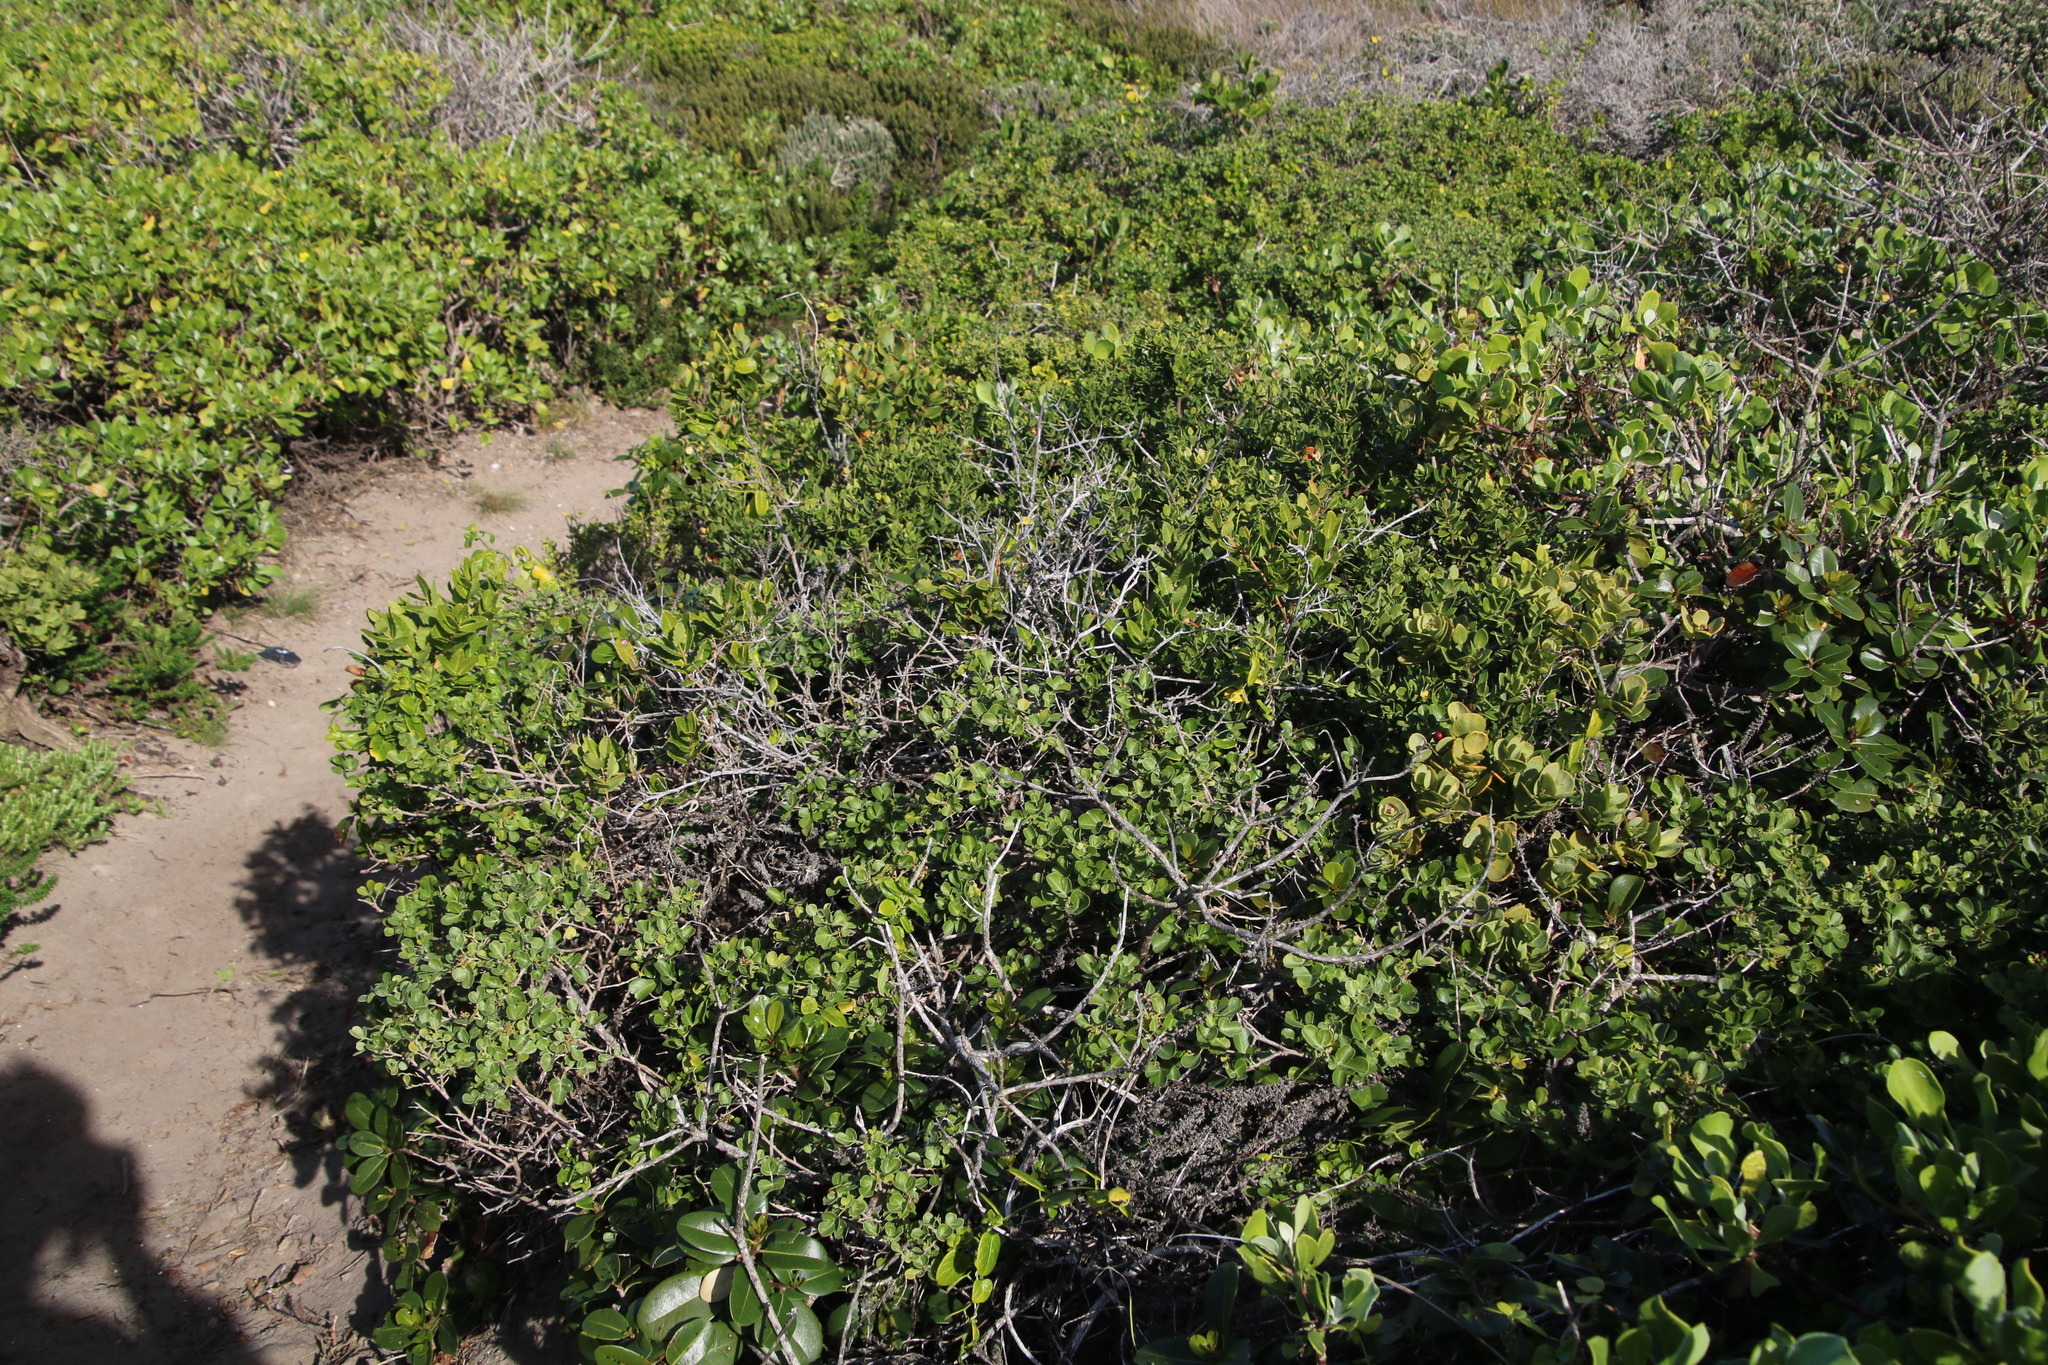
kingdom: Plantae
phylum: Tracheophyta
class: Magnoliopsida
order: Sapindales
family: Anacardiaceae
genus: Searsia
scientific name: Searsia glauca
